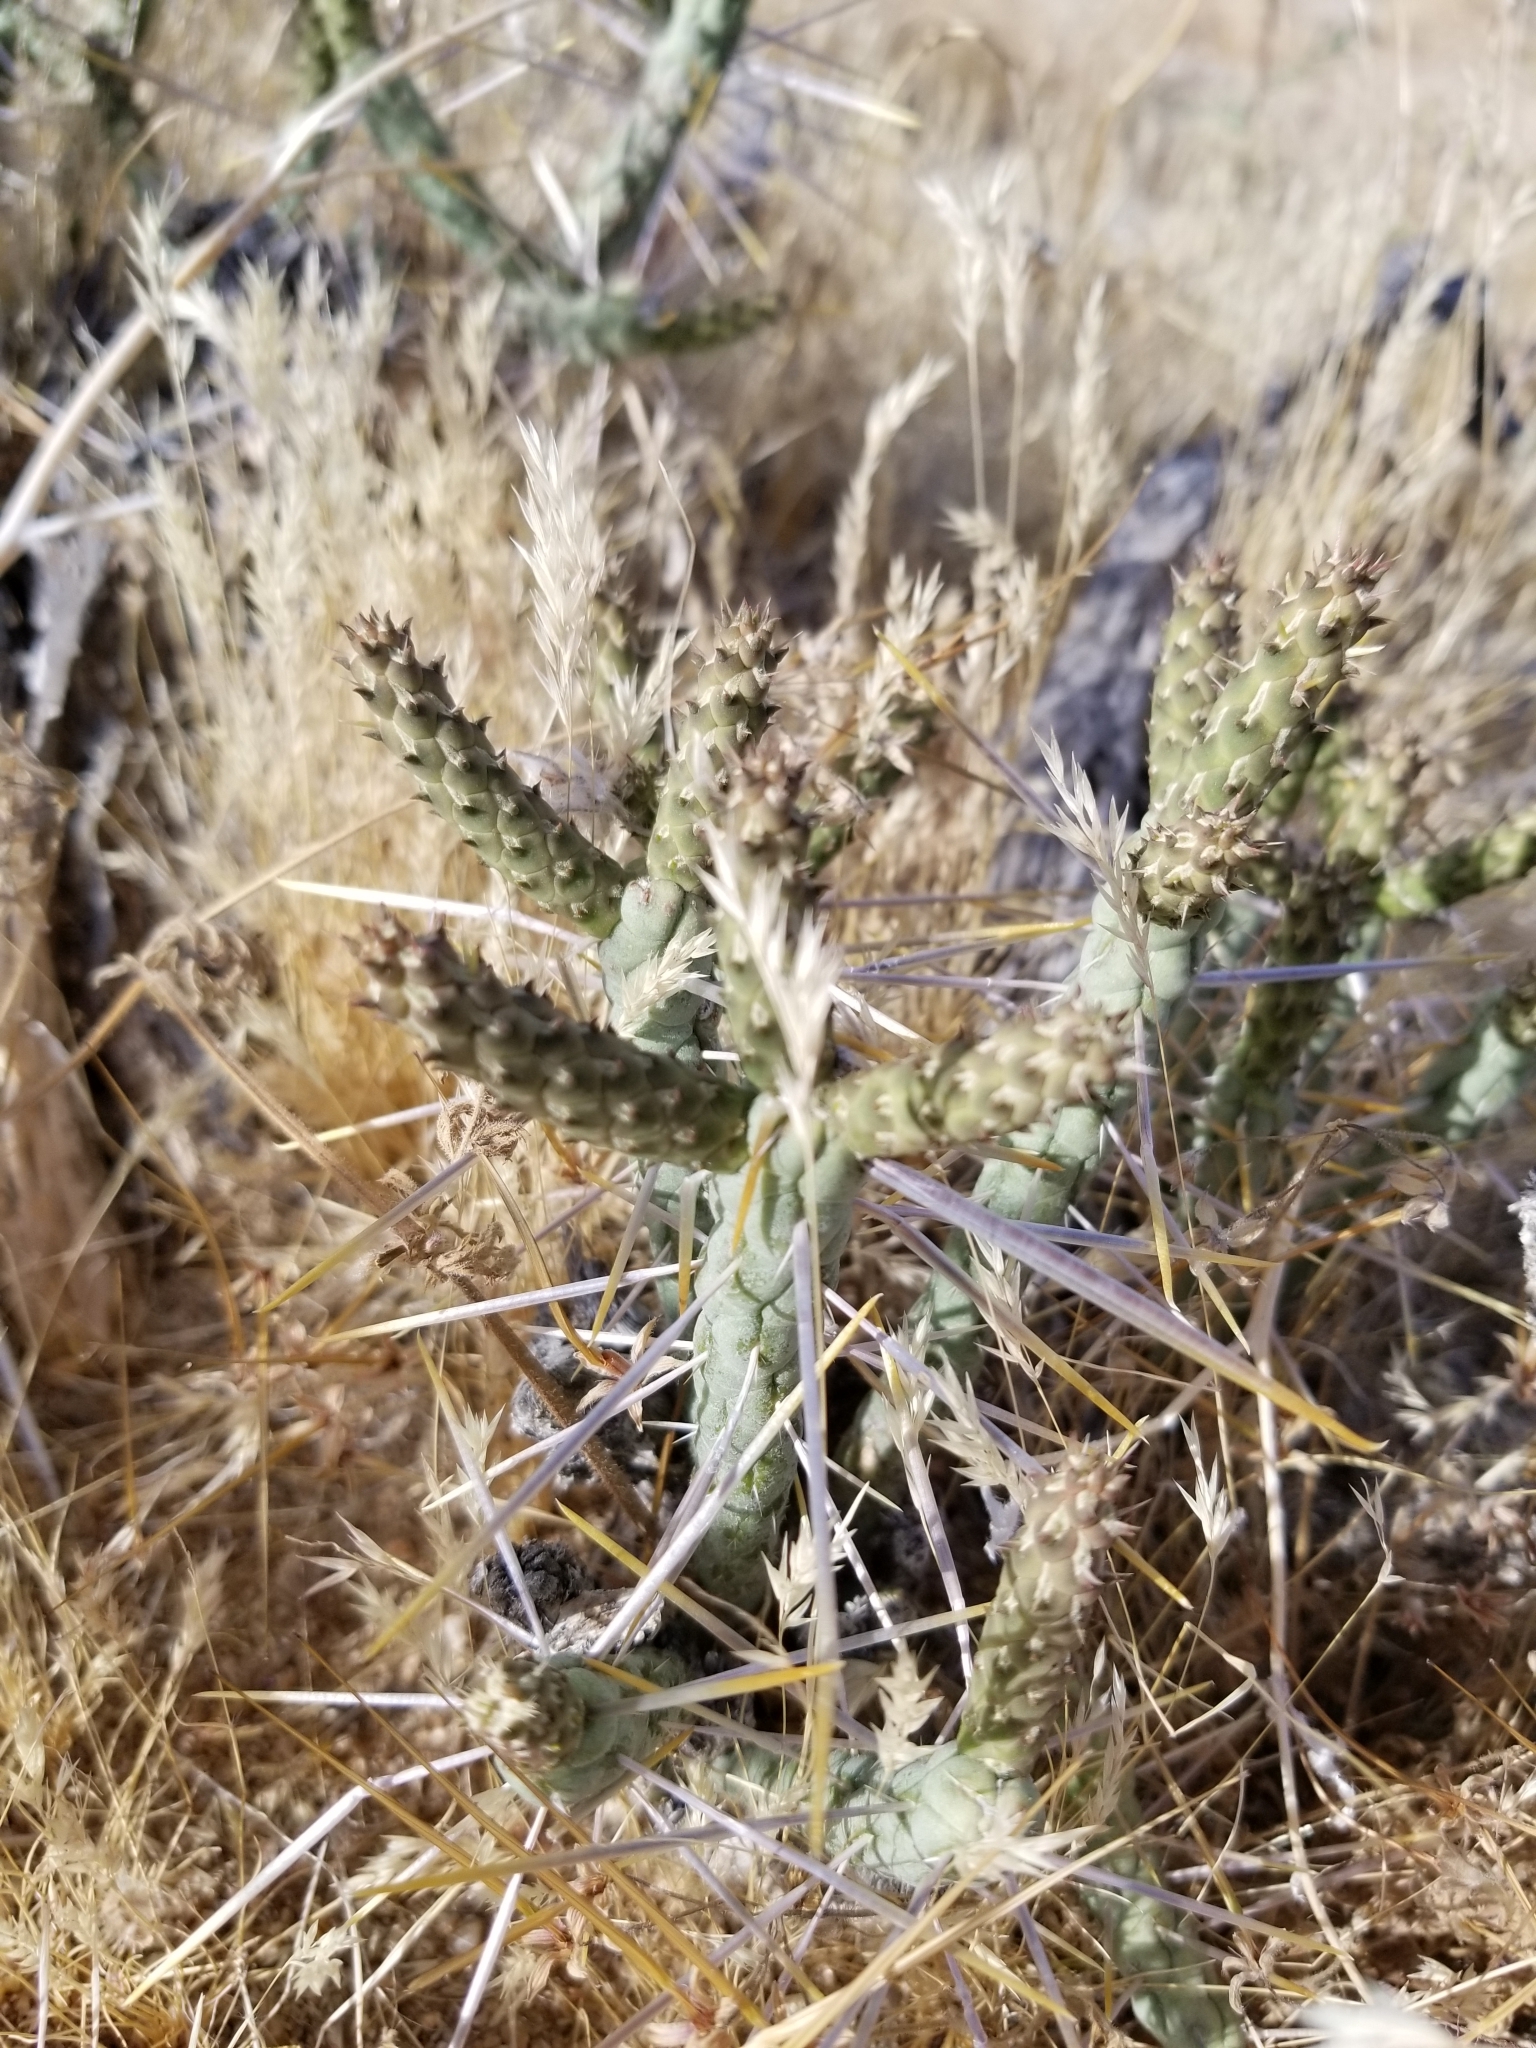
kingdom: Plantae
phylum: Tracheophyta
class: Magnoliopsida
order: Caryophyllales
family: Cactaceae
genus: Cylindropuntia
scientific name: Cylindropuntia ramosissima
